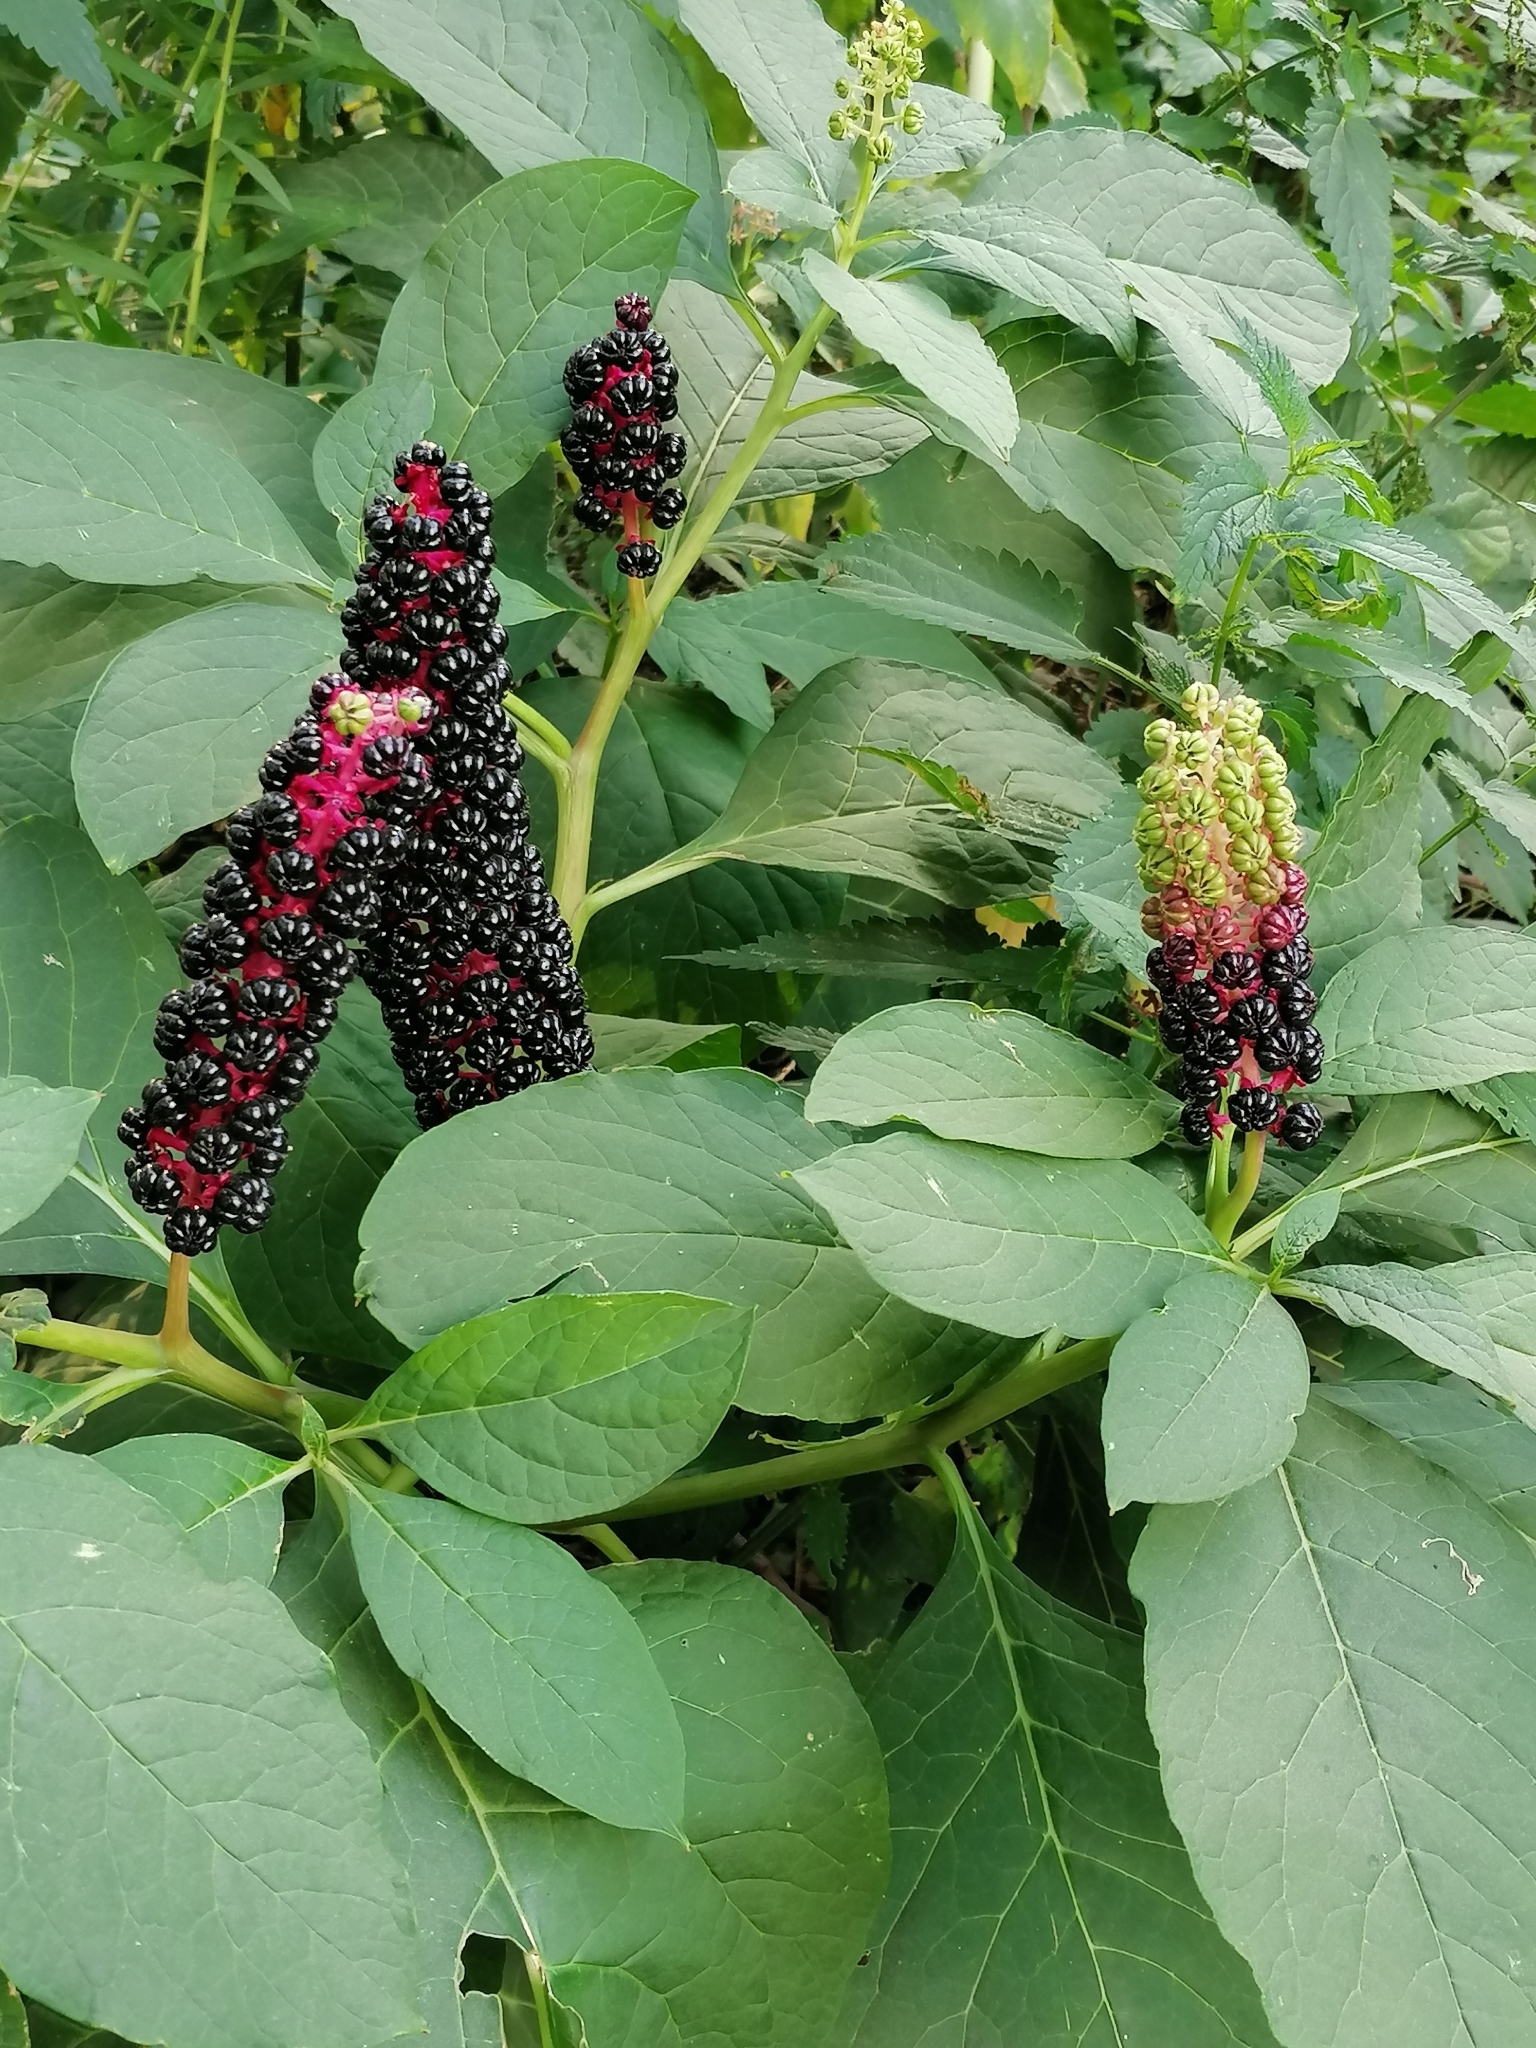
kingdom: Plantae
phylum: Tracheophyta
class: Magnoliopsida
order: Caryophyllales
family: Phytolaccaceae
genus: Phytolacca
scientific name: Phytolacca acinosa
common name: Indian pokeweed
